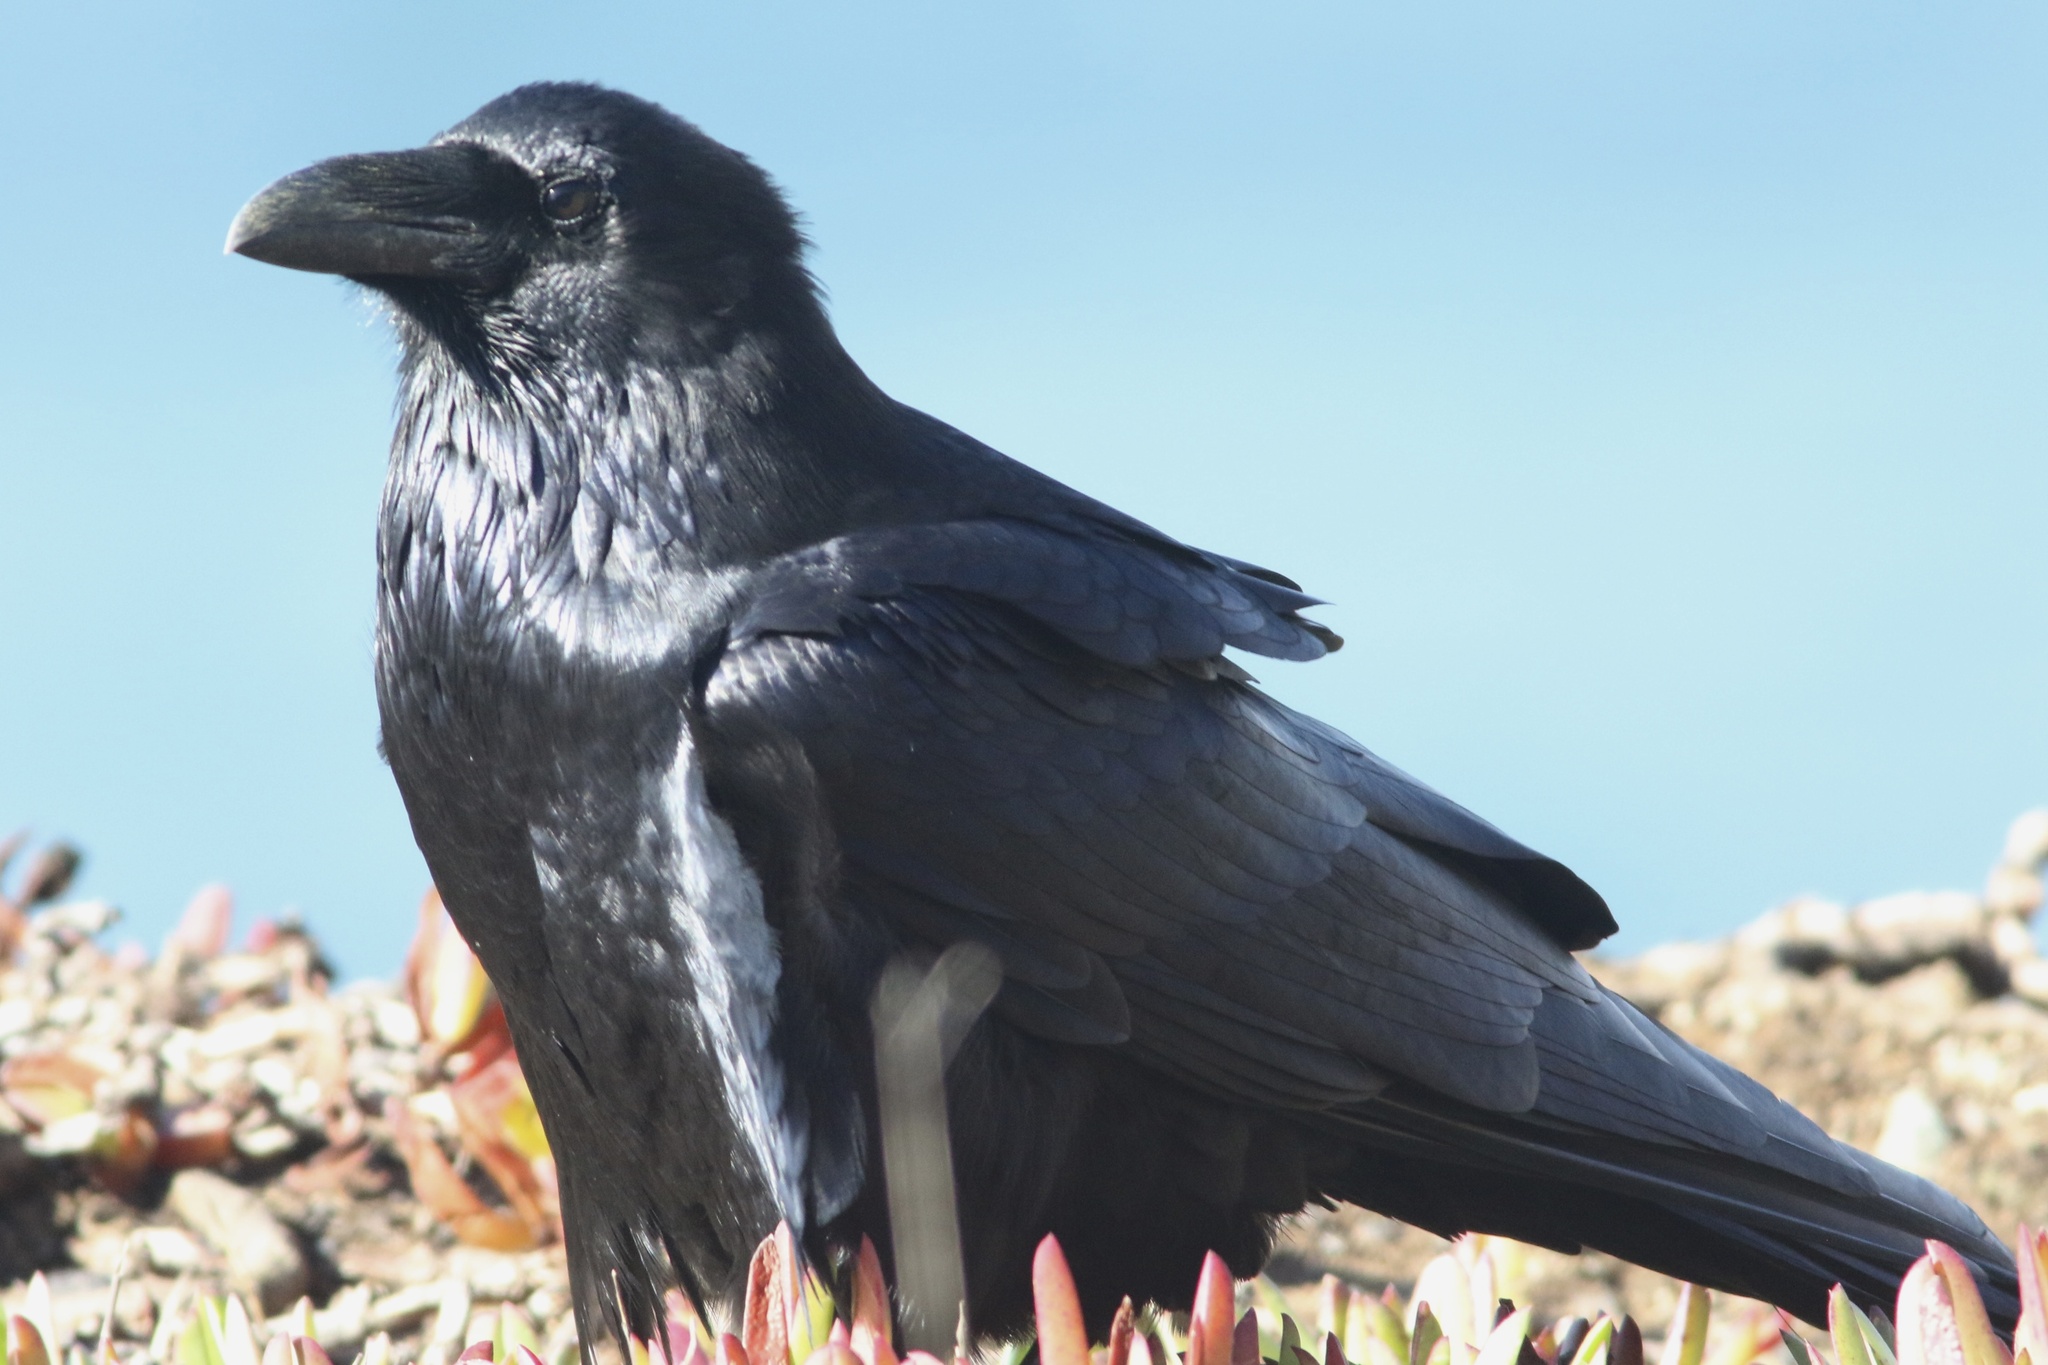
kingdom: Animalia
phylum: Chordata
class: Aves
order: Passeriformes
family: Corvidae
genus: Corvus
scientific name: Corvus corax
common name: Common raven
